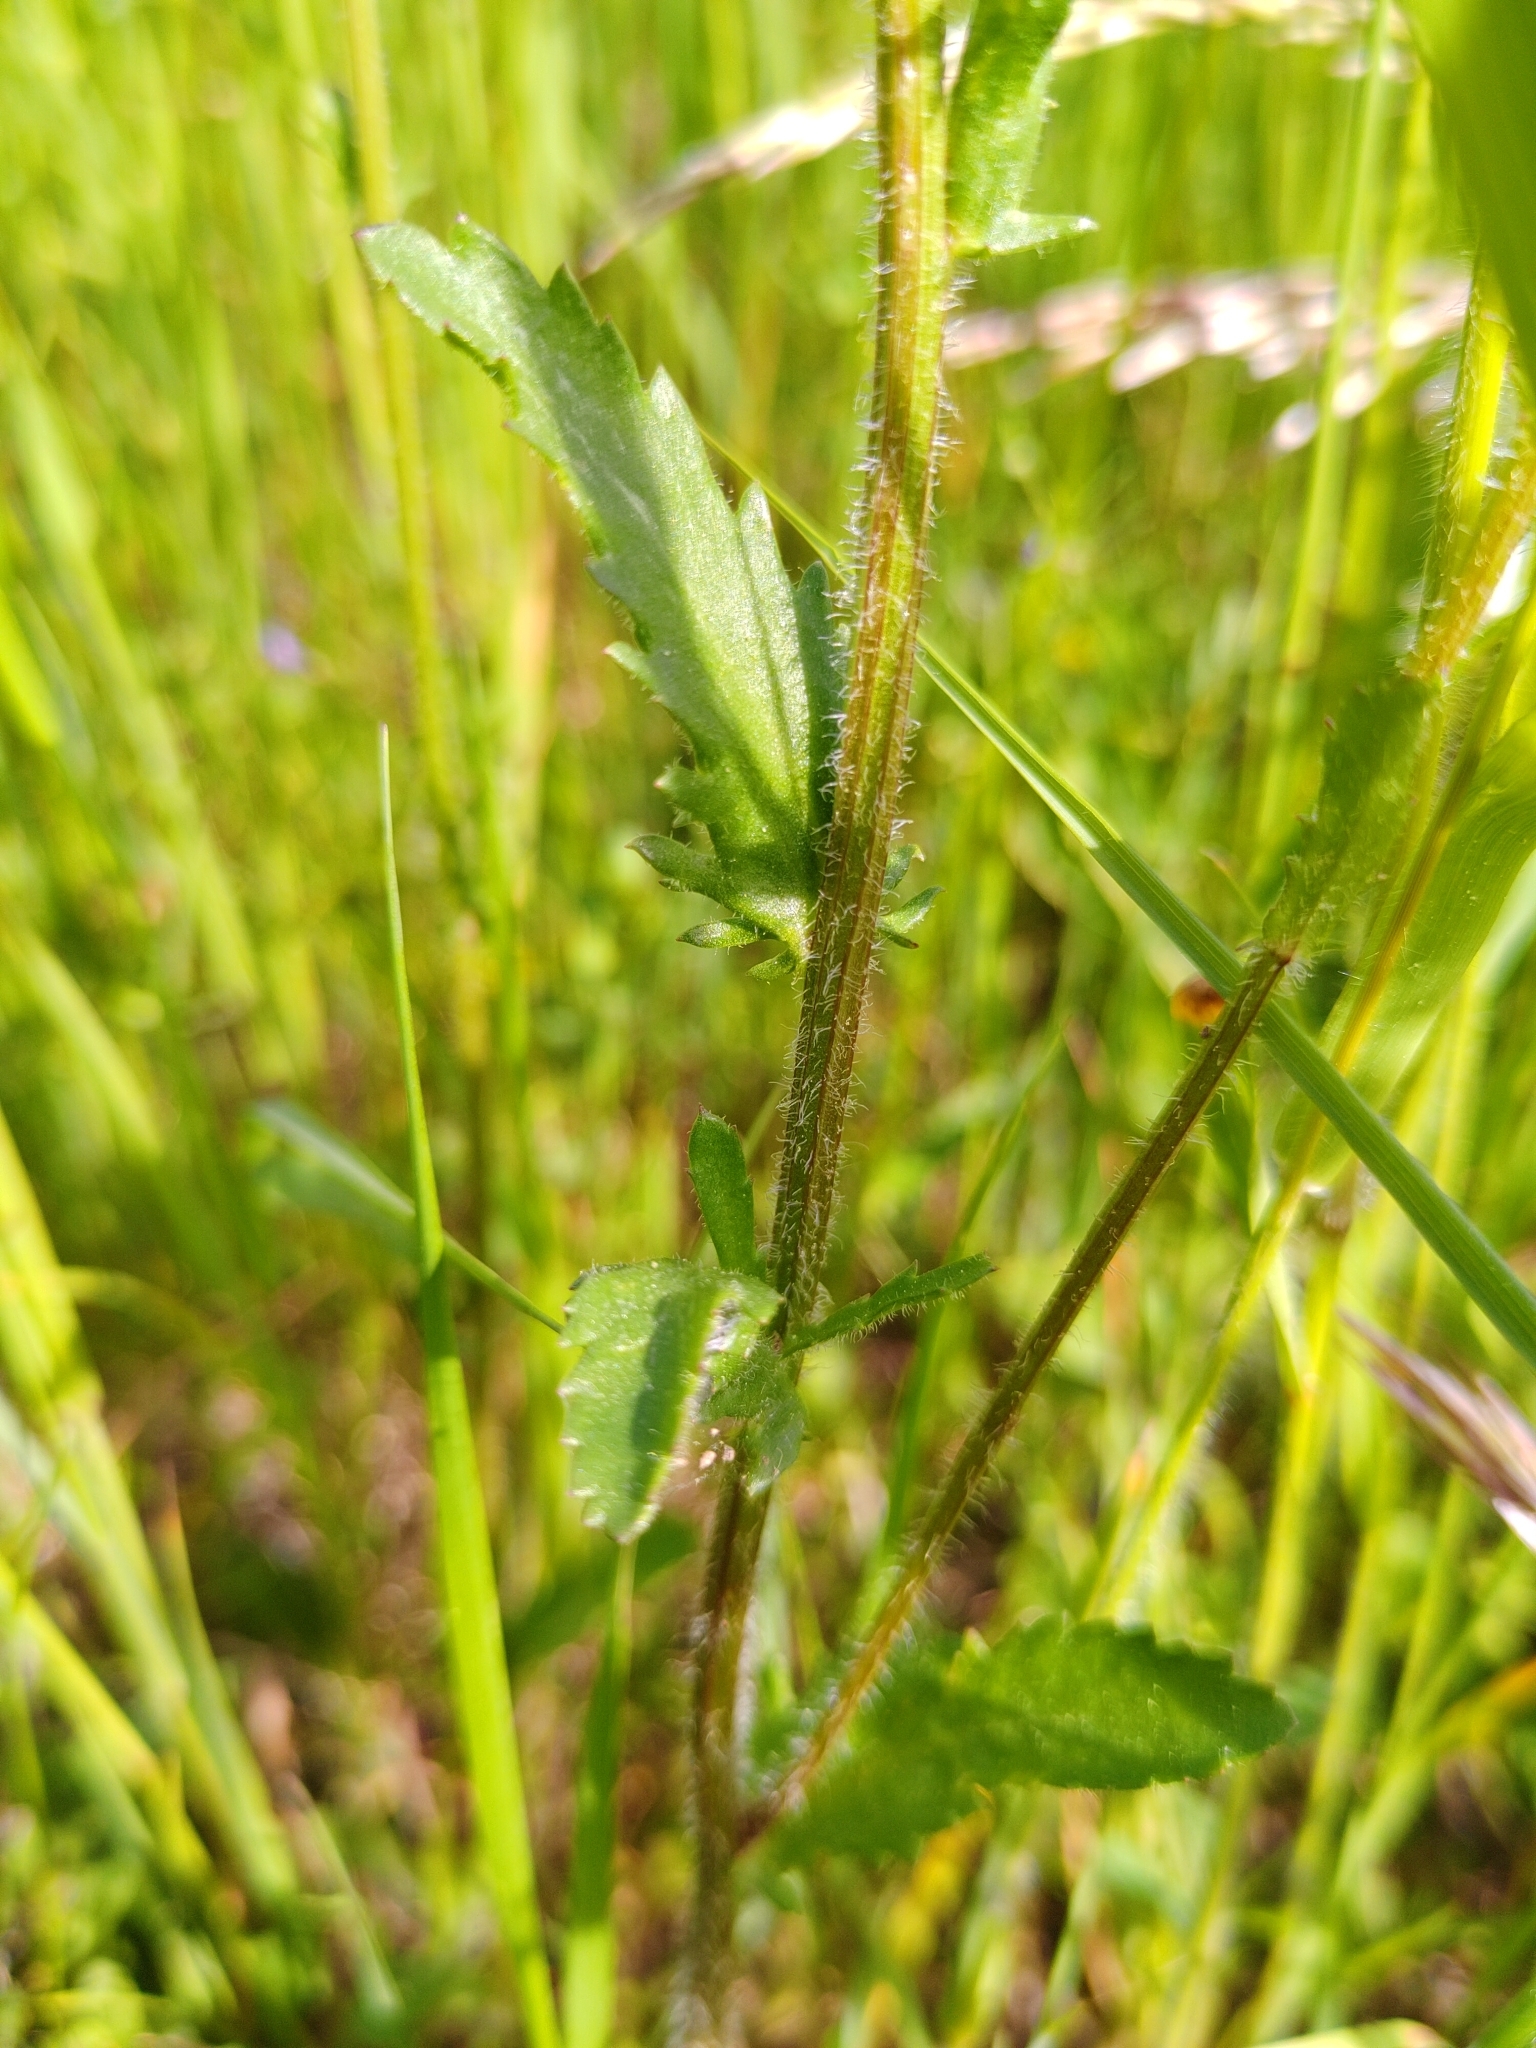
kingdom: Plantae
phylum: Tracheophyta
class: Magnoliopsida
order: Asterales
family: Asteraceae
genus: Leucanthemum
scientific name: Leucanthemum vulgare
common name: Oxeye daisy
